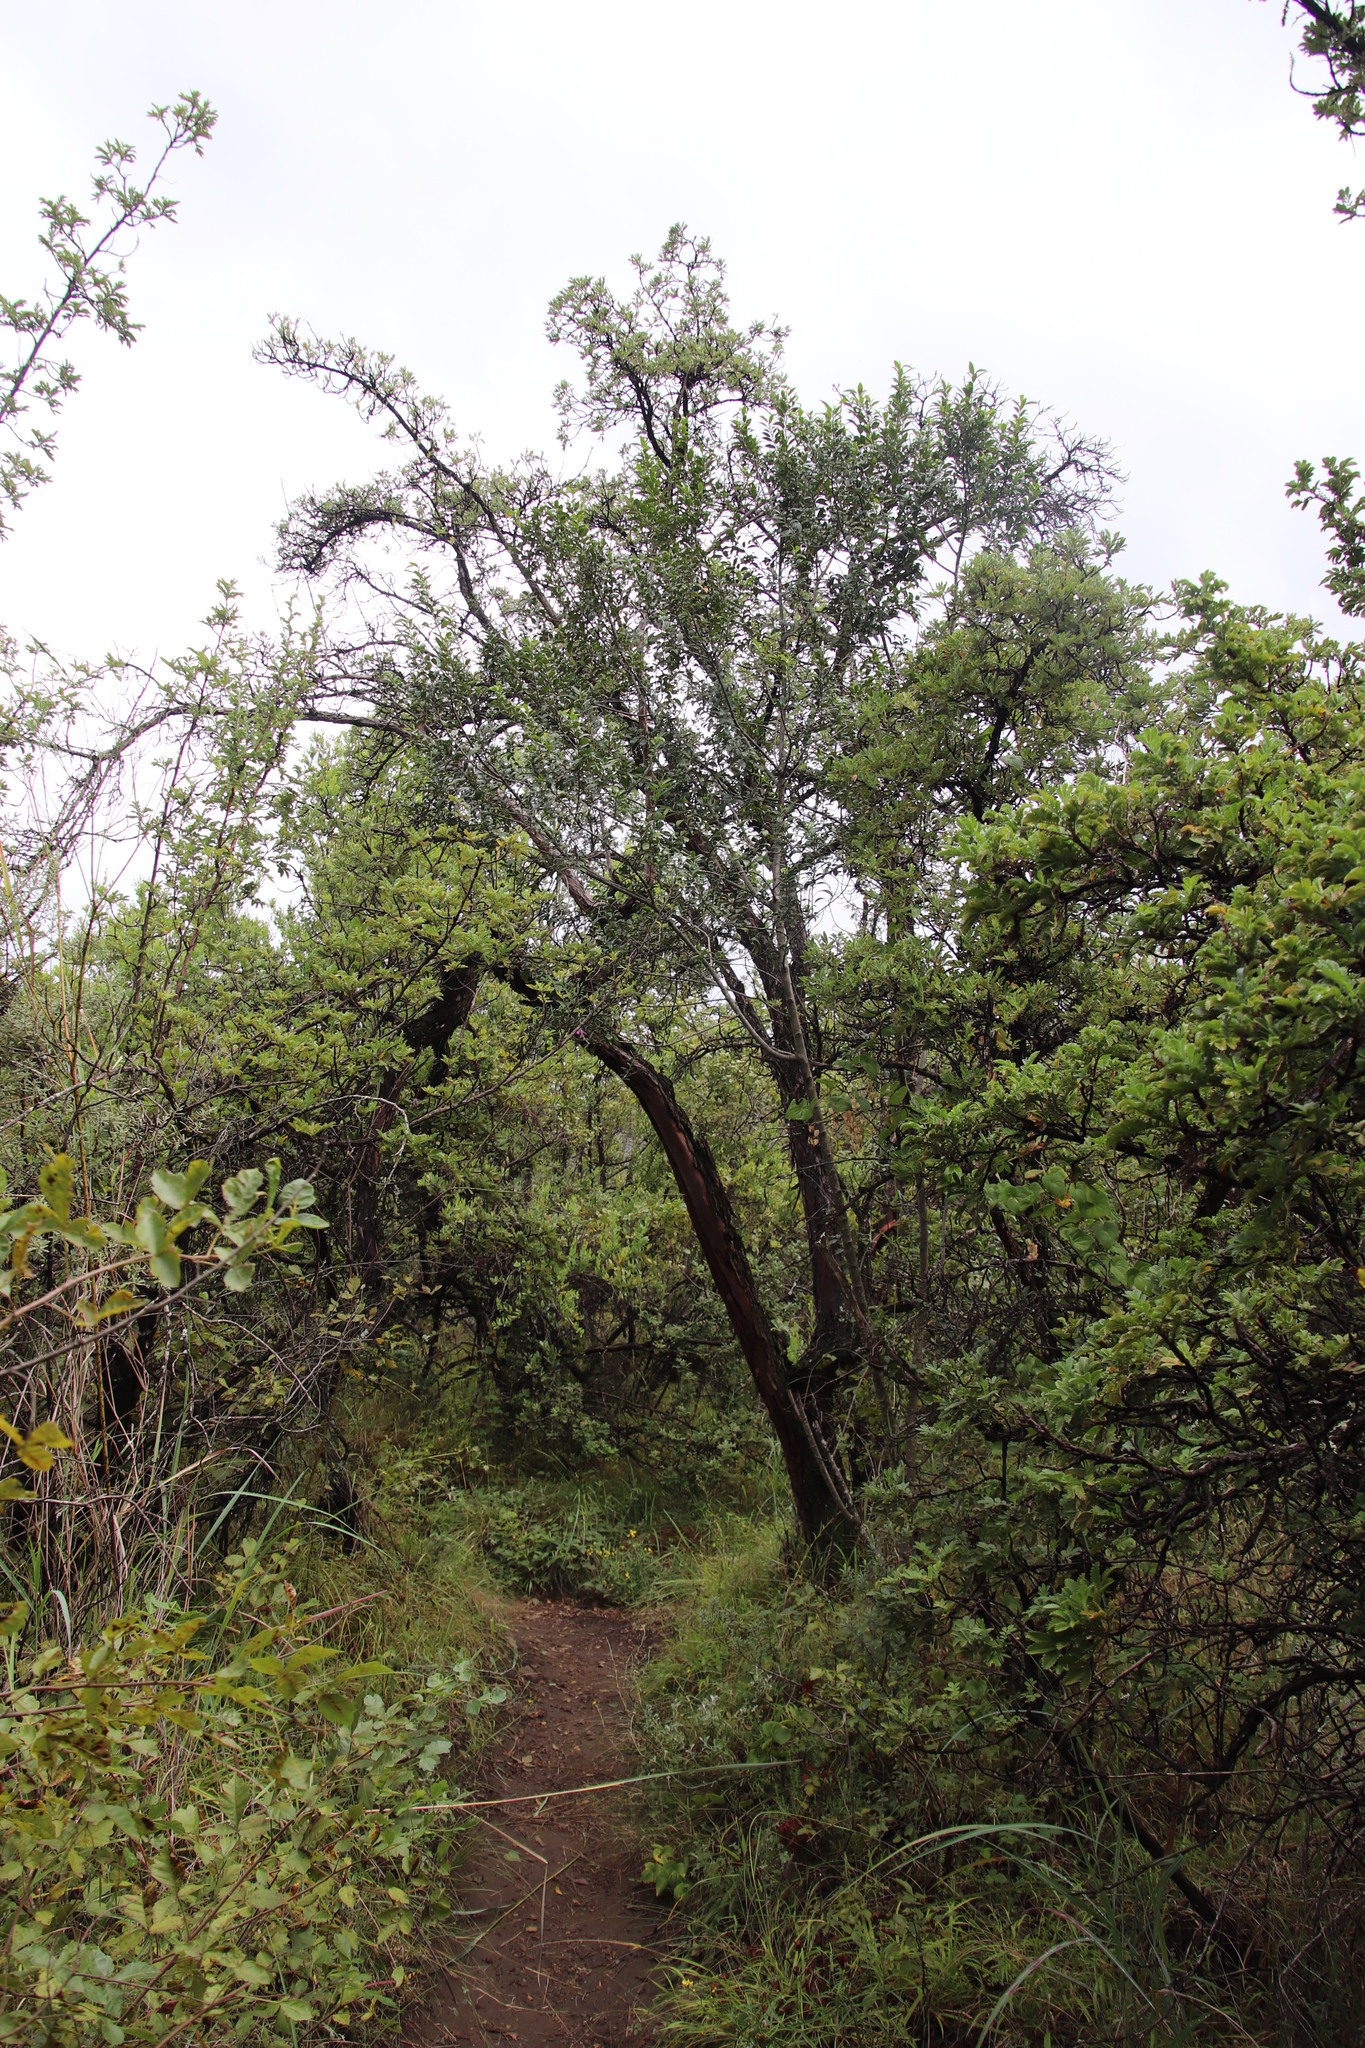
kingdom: Plantae
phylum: Tracheophyta
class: Magnoliopsida
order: Rosales
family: Rosaceae
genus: Leucosidea
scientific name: Leucosidea sericea
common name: Oldwood
